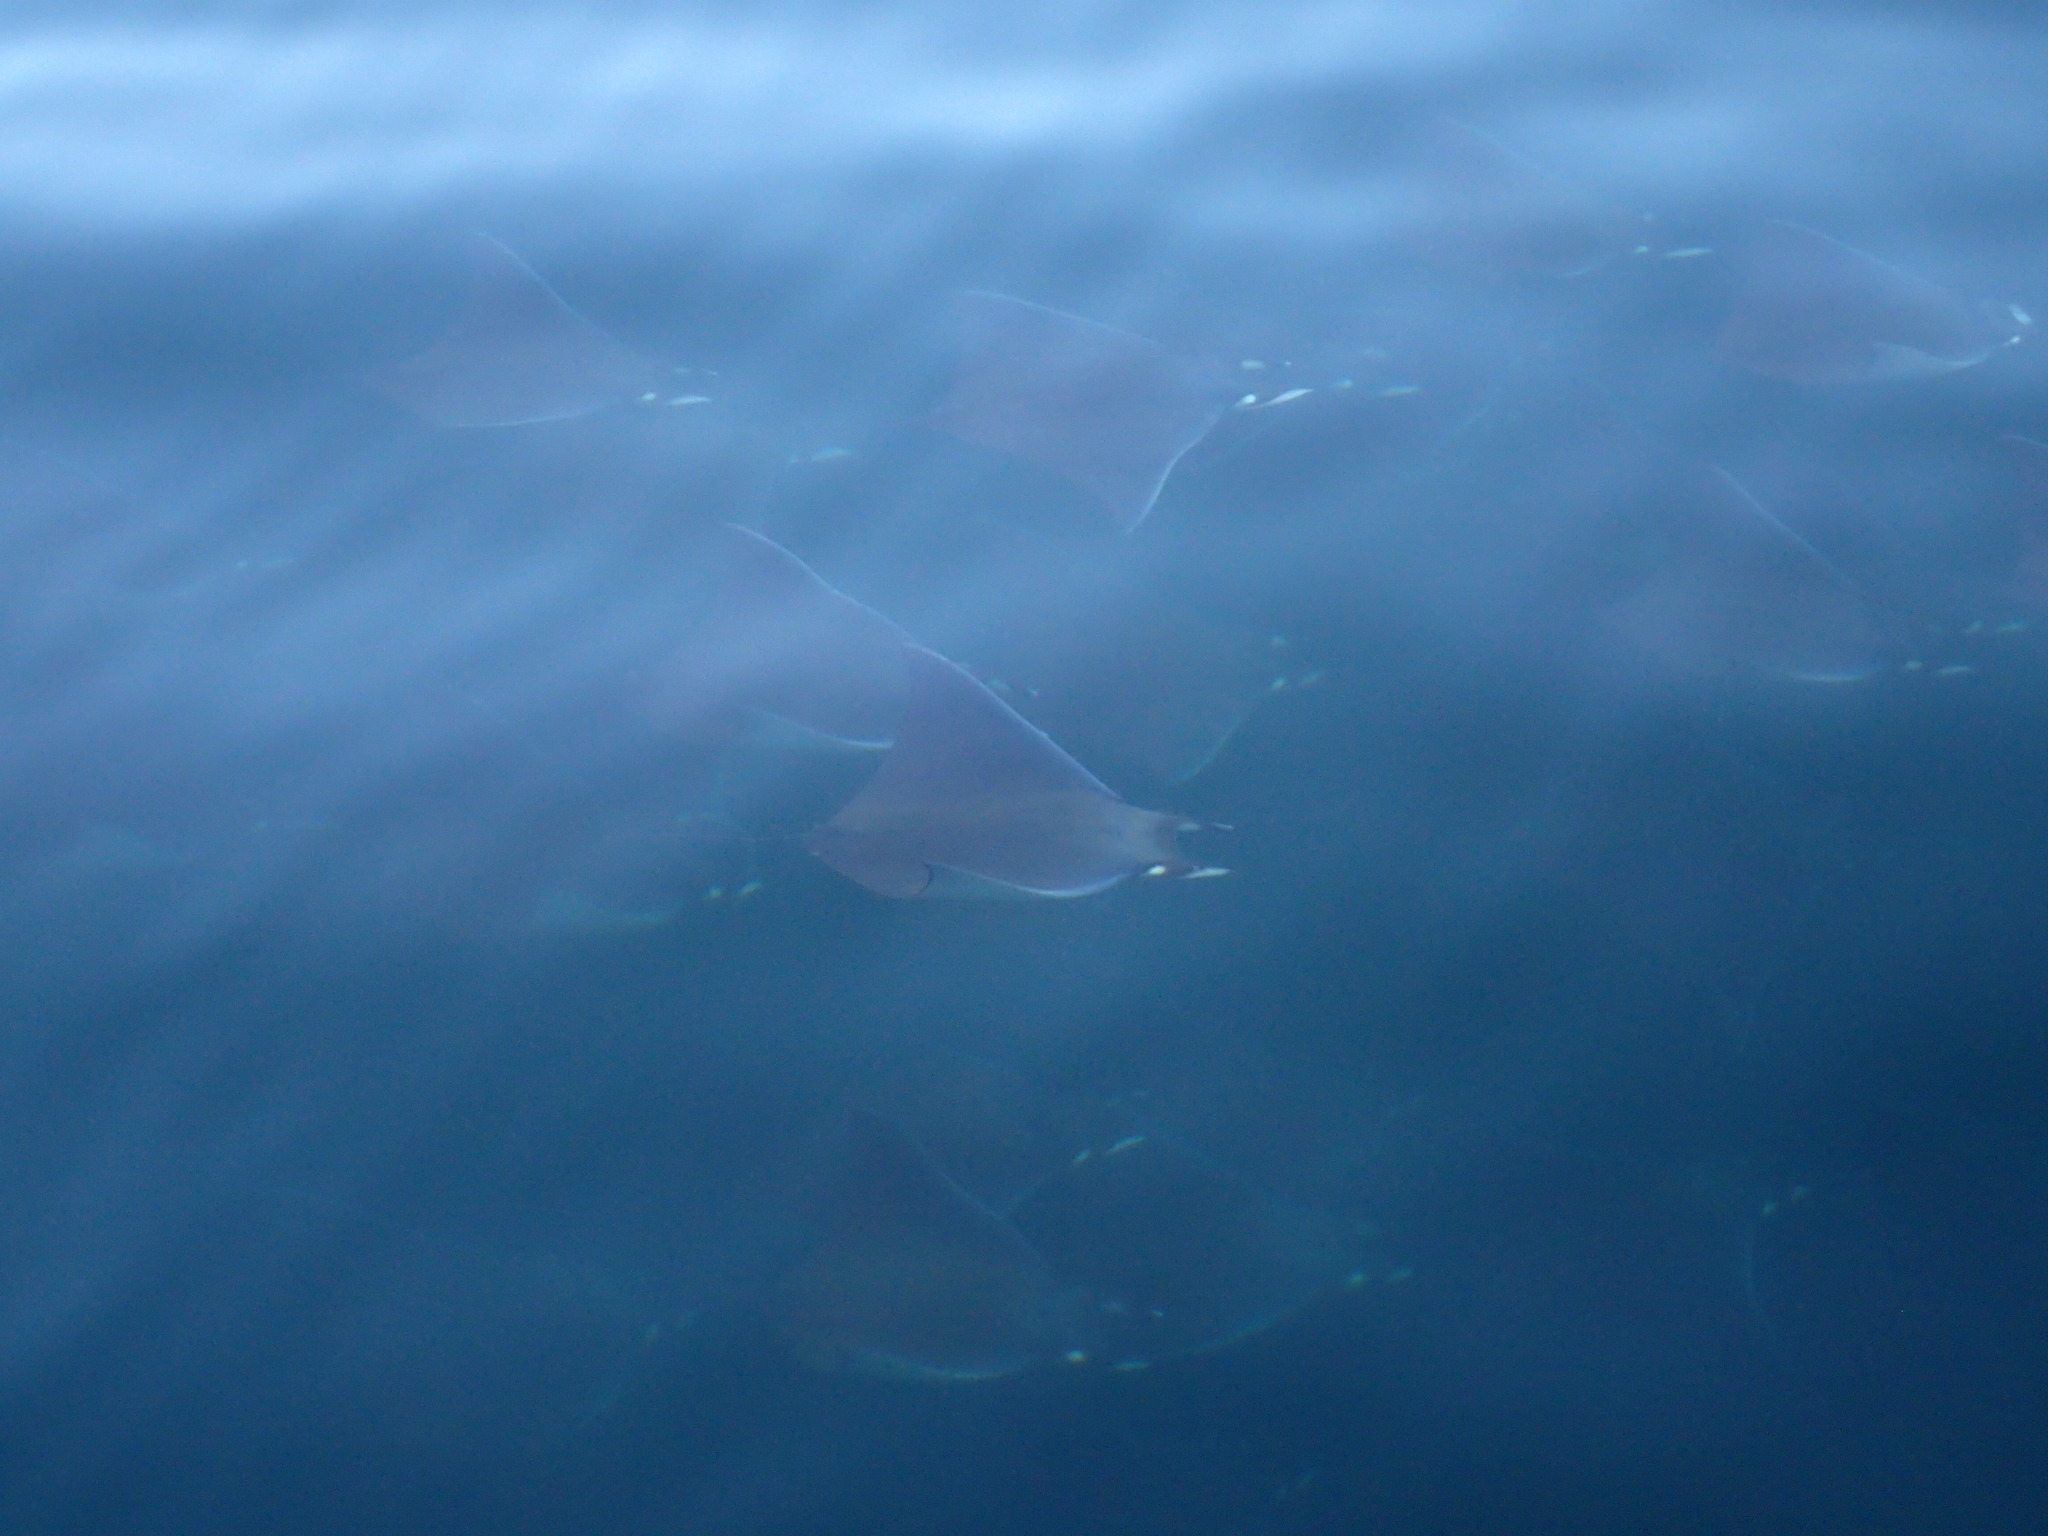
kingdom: Animalia
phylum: Chordata
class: Elasmobranchii
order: Myliobatiformes
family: Myliobatidae
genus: Mobula
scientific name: Mobula munkiana
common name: Pygmy devil ray
